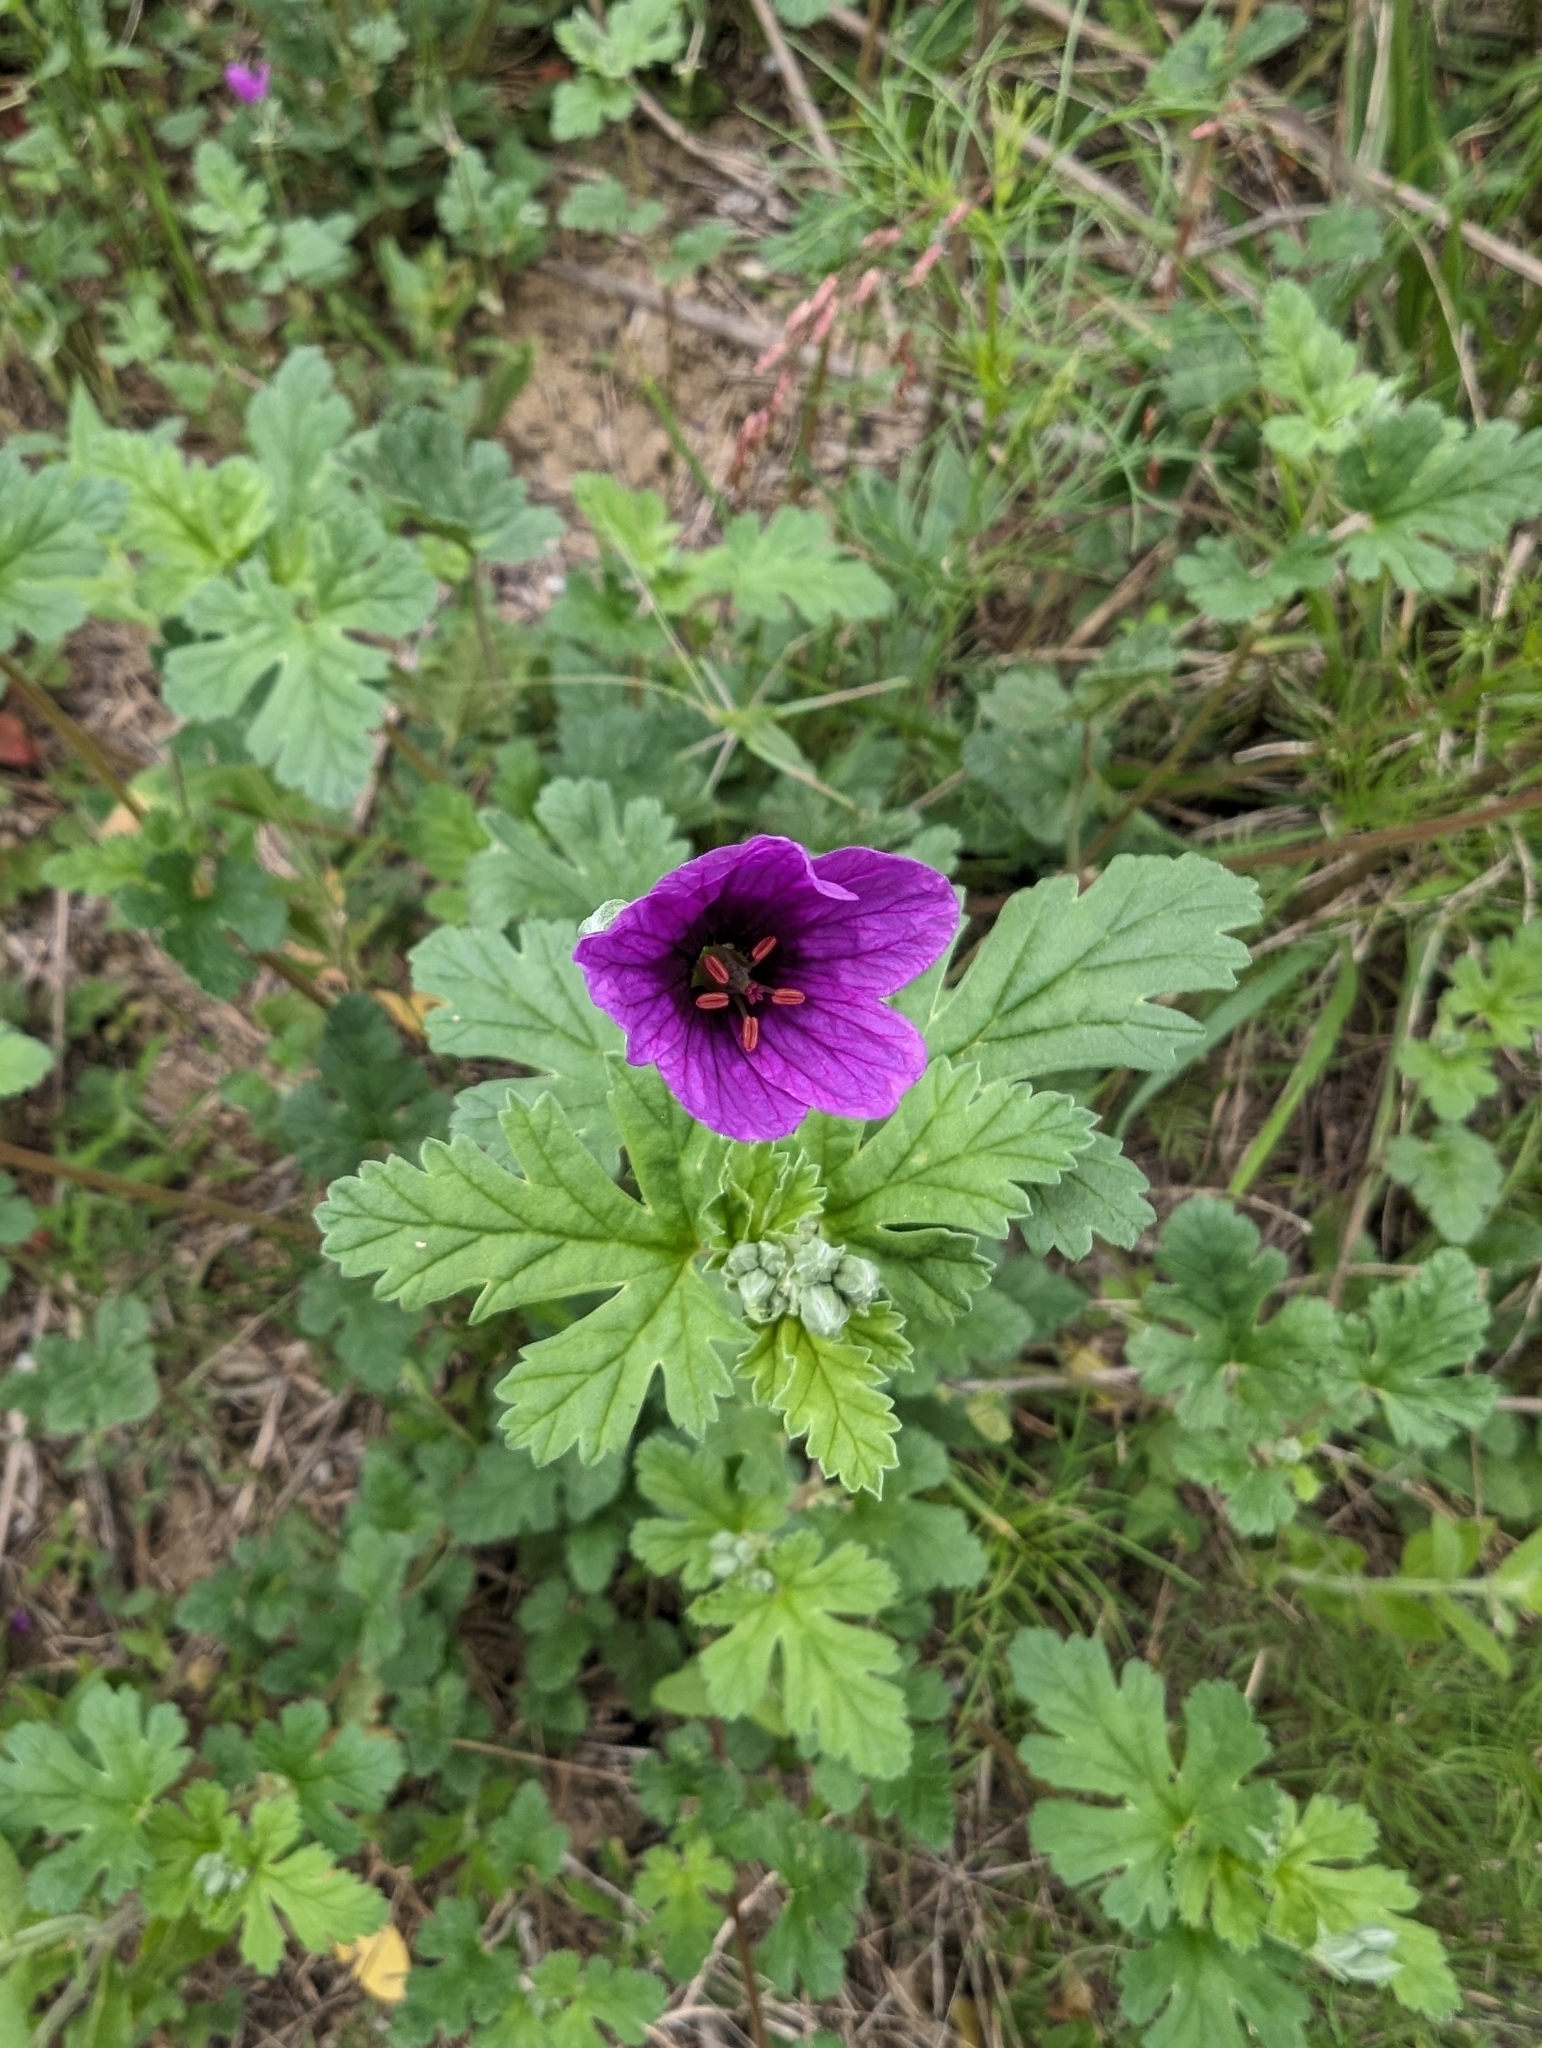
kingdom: Plantae
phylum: Tracheophyta
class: Magnoliopsida
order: Geraniales
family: Geraniaceae
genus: Erodium
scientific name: Erodium texanum
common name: Texas stork's-bill
